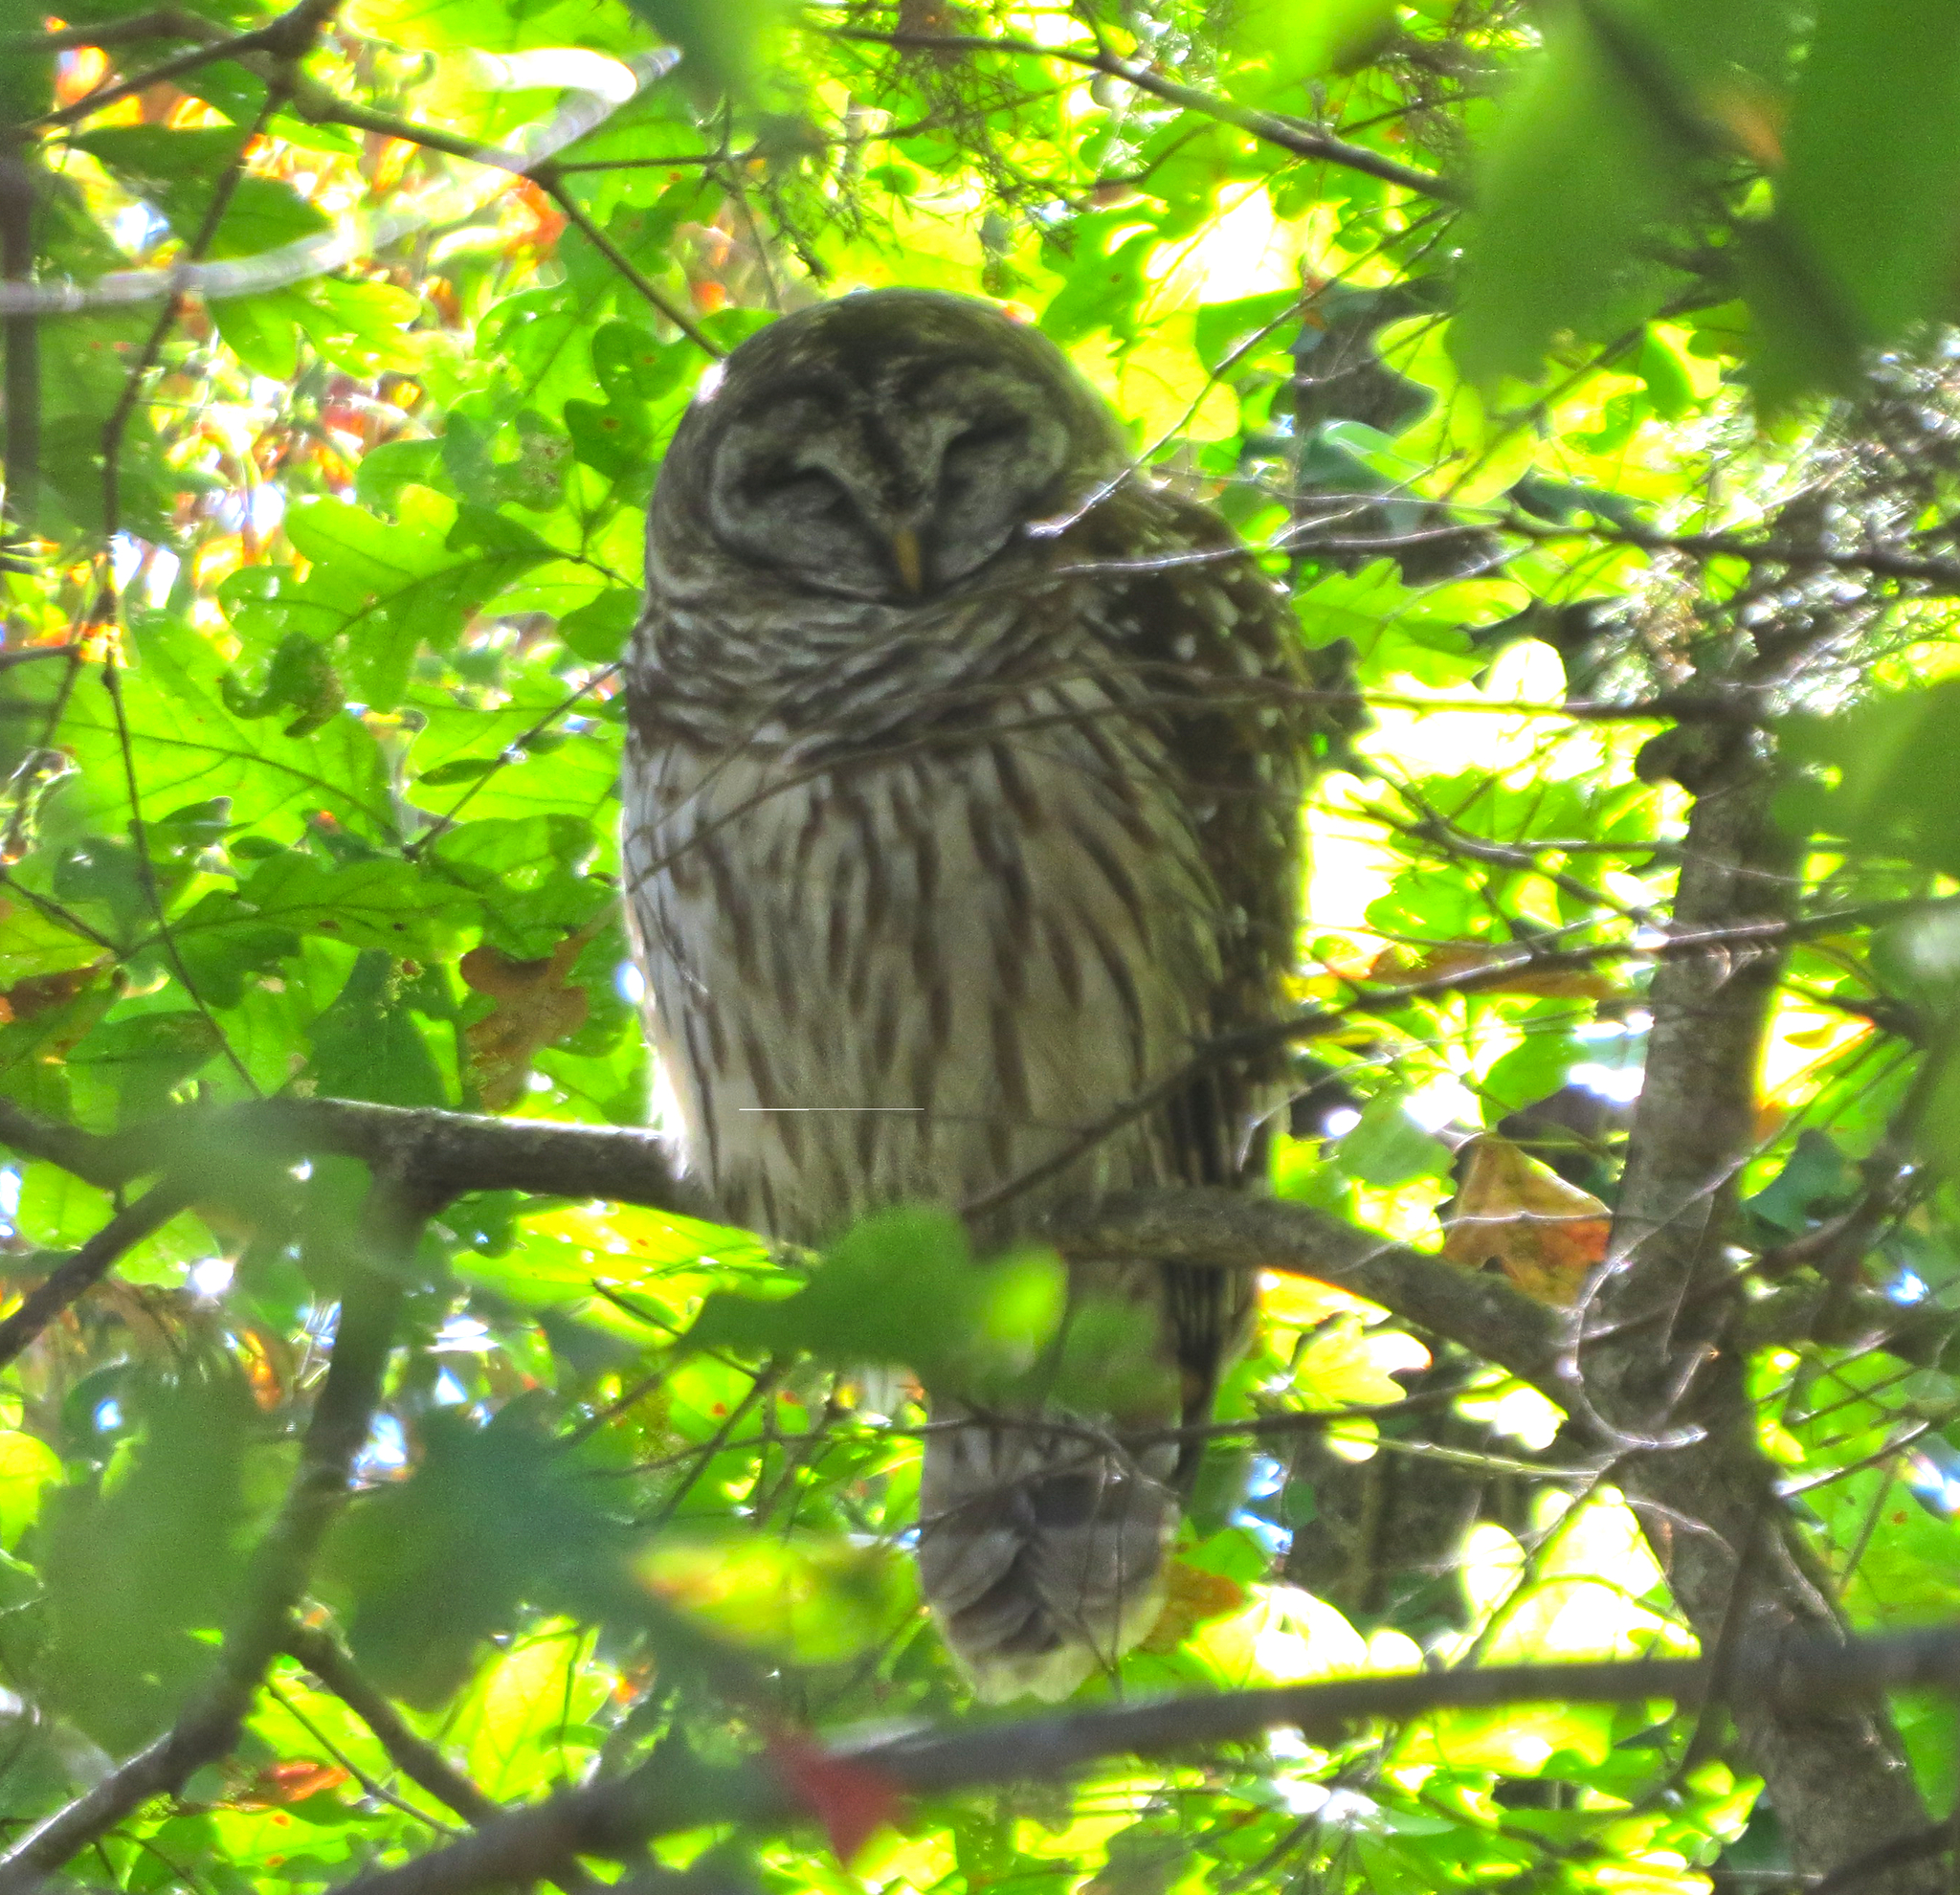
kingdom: Animalia
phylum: Chordata
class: Aves
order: Strigiformes
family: Strigidae
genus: Strix
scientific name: Strix varia
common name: Barred owl
